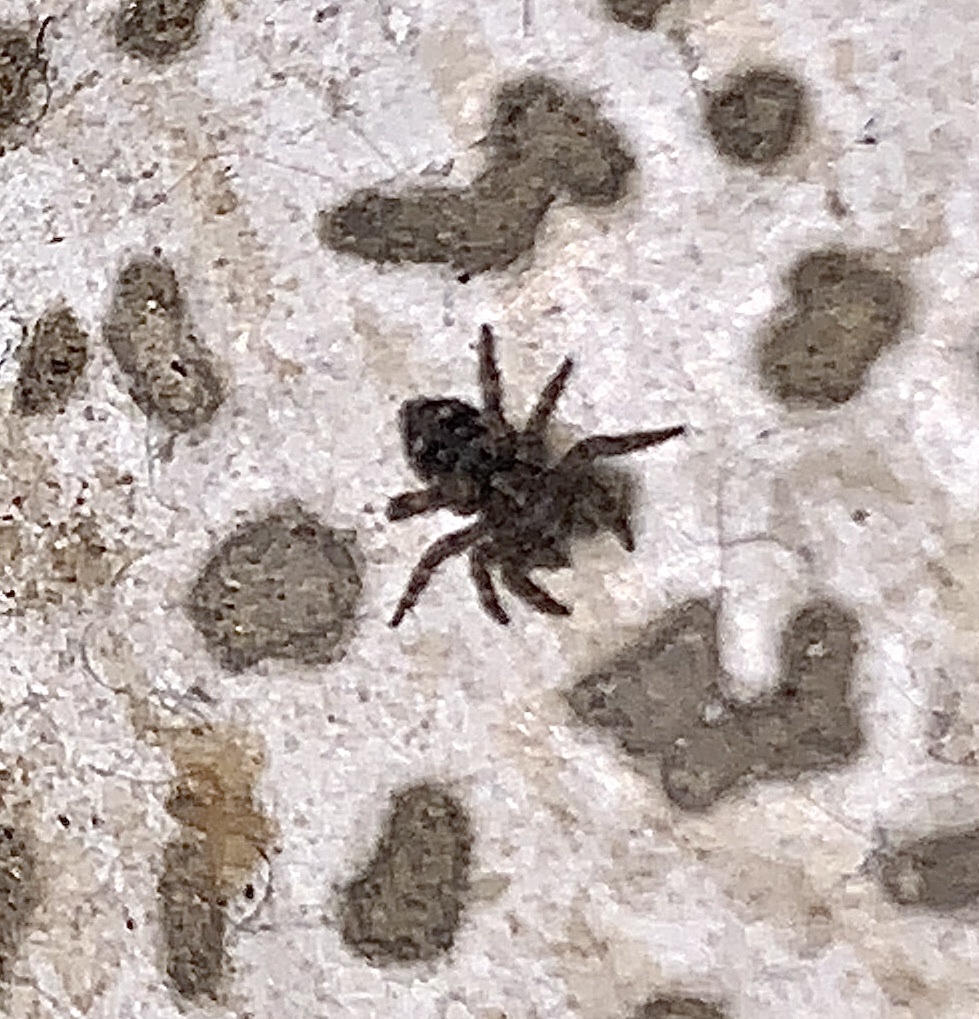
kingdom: Animalia
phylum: Arthropoda
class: Arachnida
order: Araneae
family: Salticidae
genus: Attulus
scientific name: Attulus fasciger
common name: Asiatic wall jumping spider
